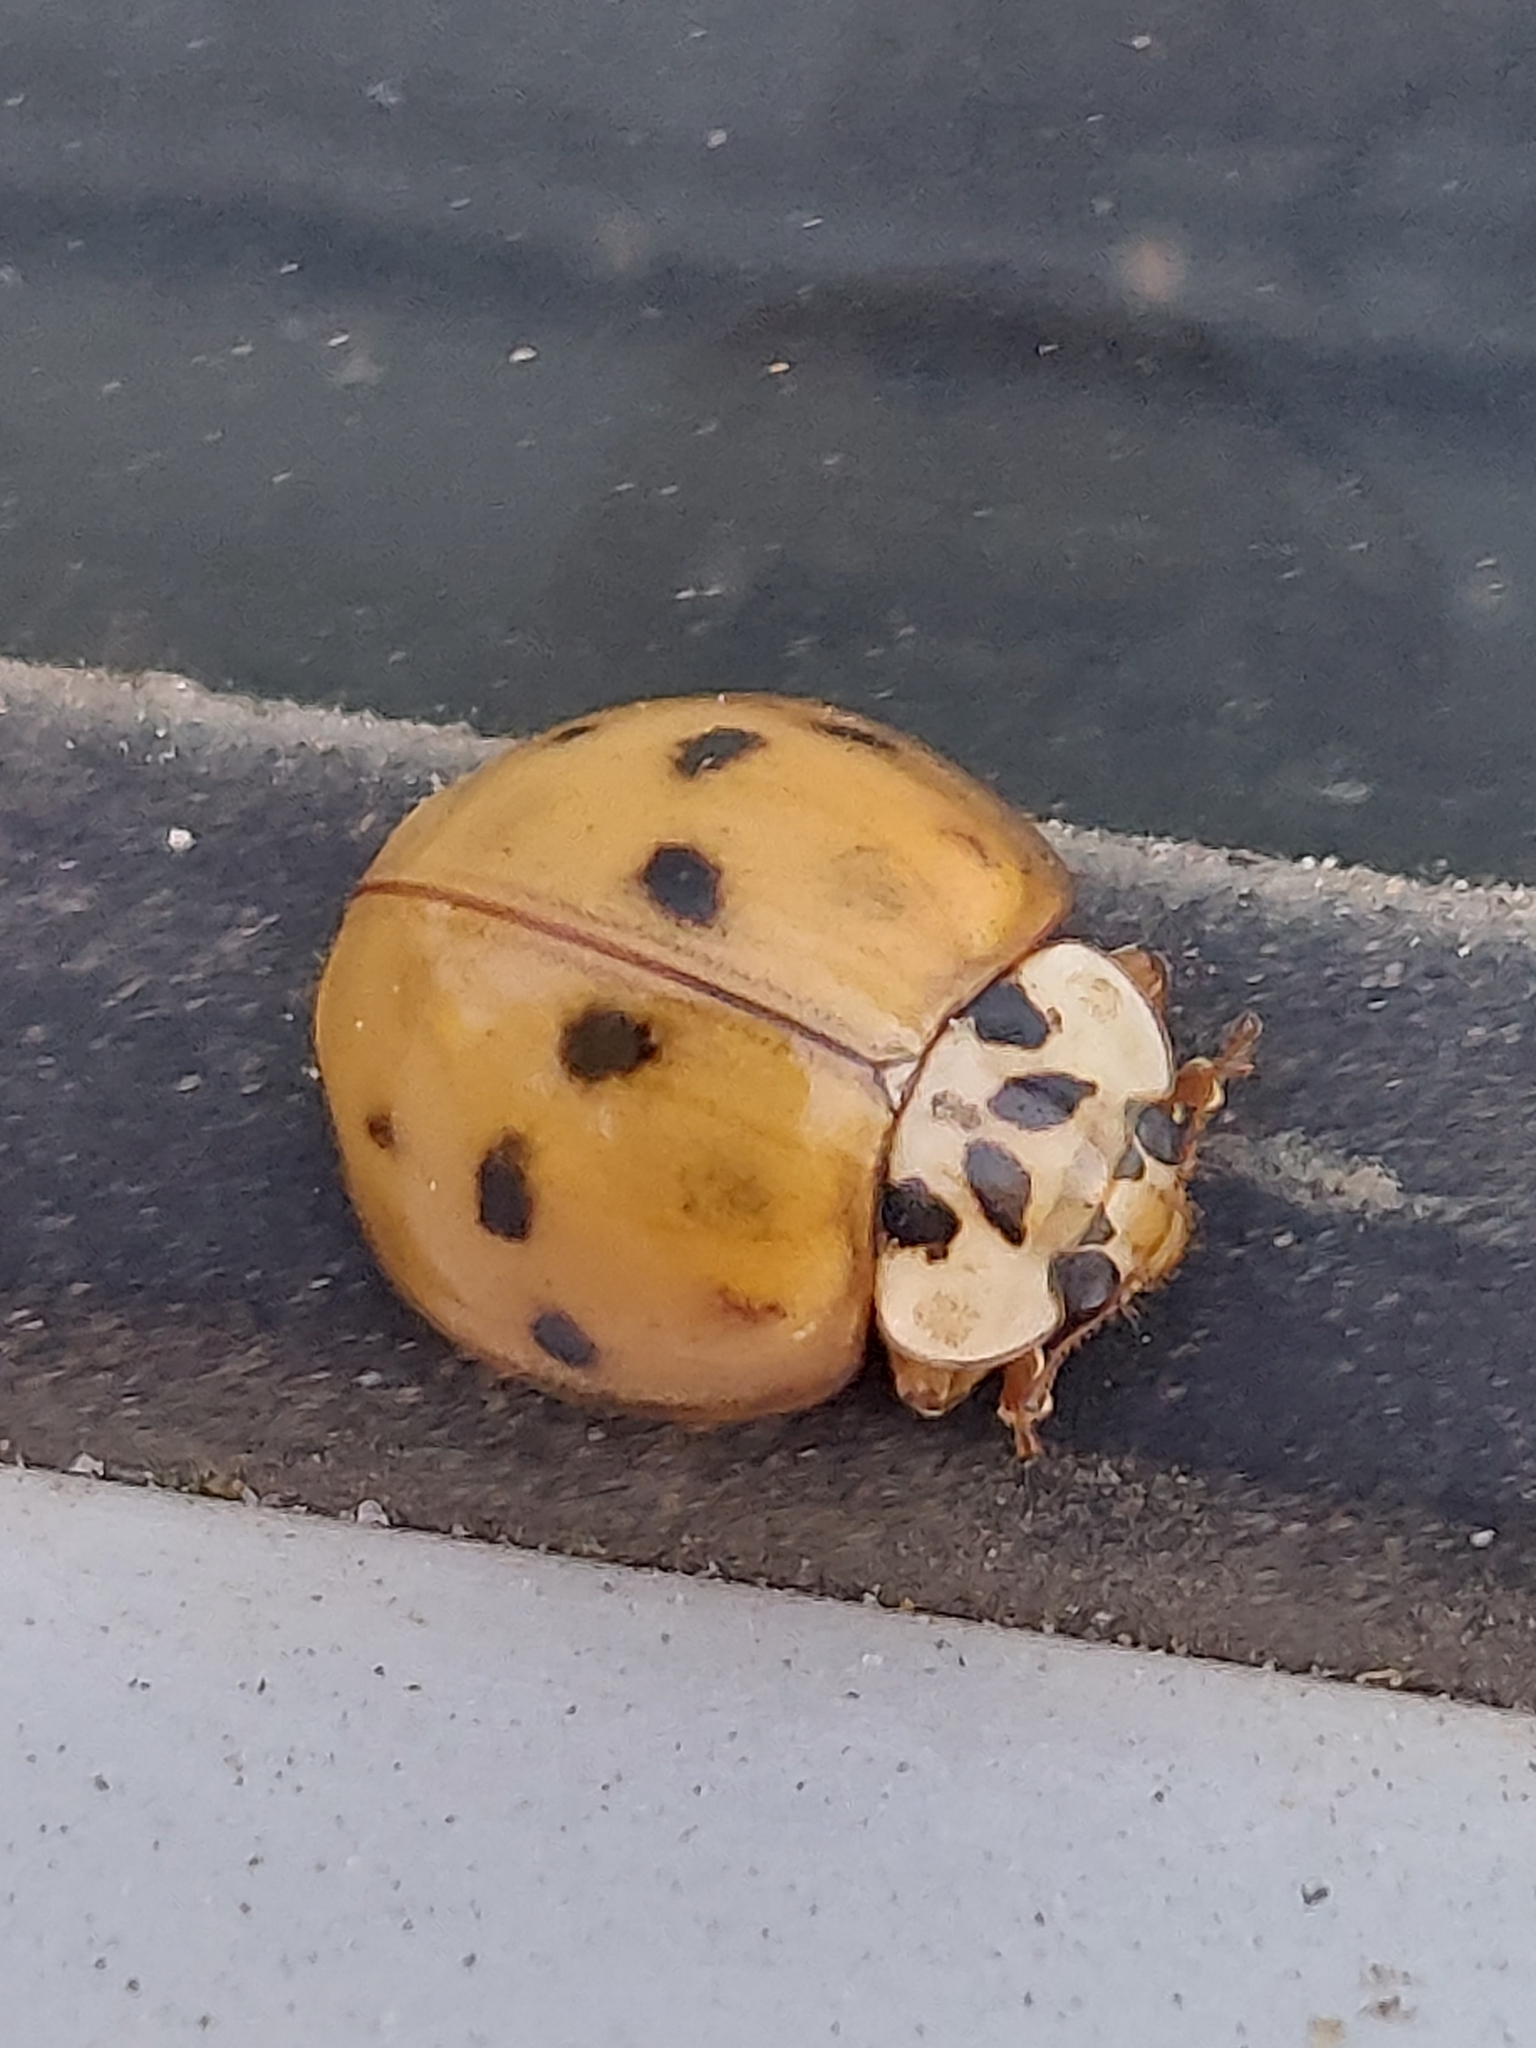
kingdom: Animalia
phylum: Arthropoda
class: Insecta
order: Coleoptera
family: Coccinellidae
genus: Harmonia
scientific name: Harmonia axyridis
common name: Harlequin ladybird
